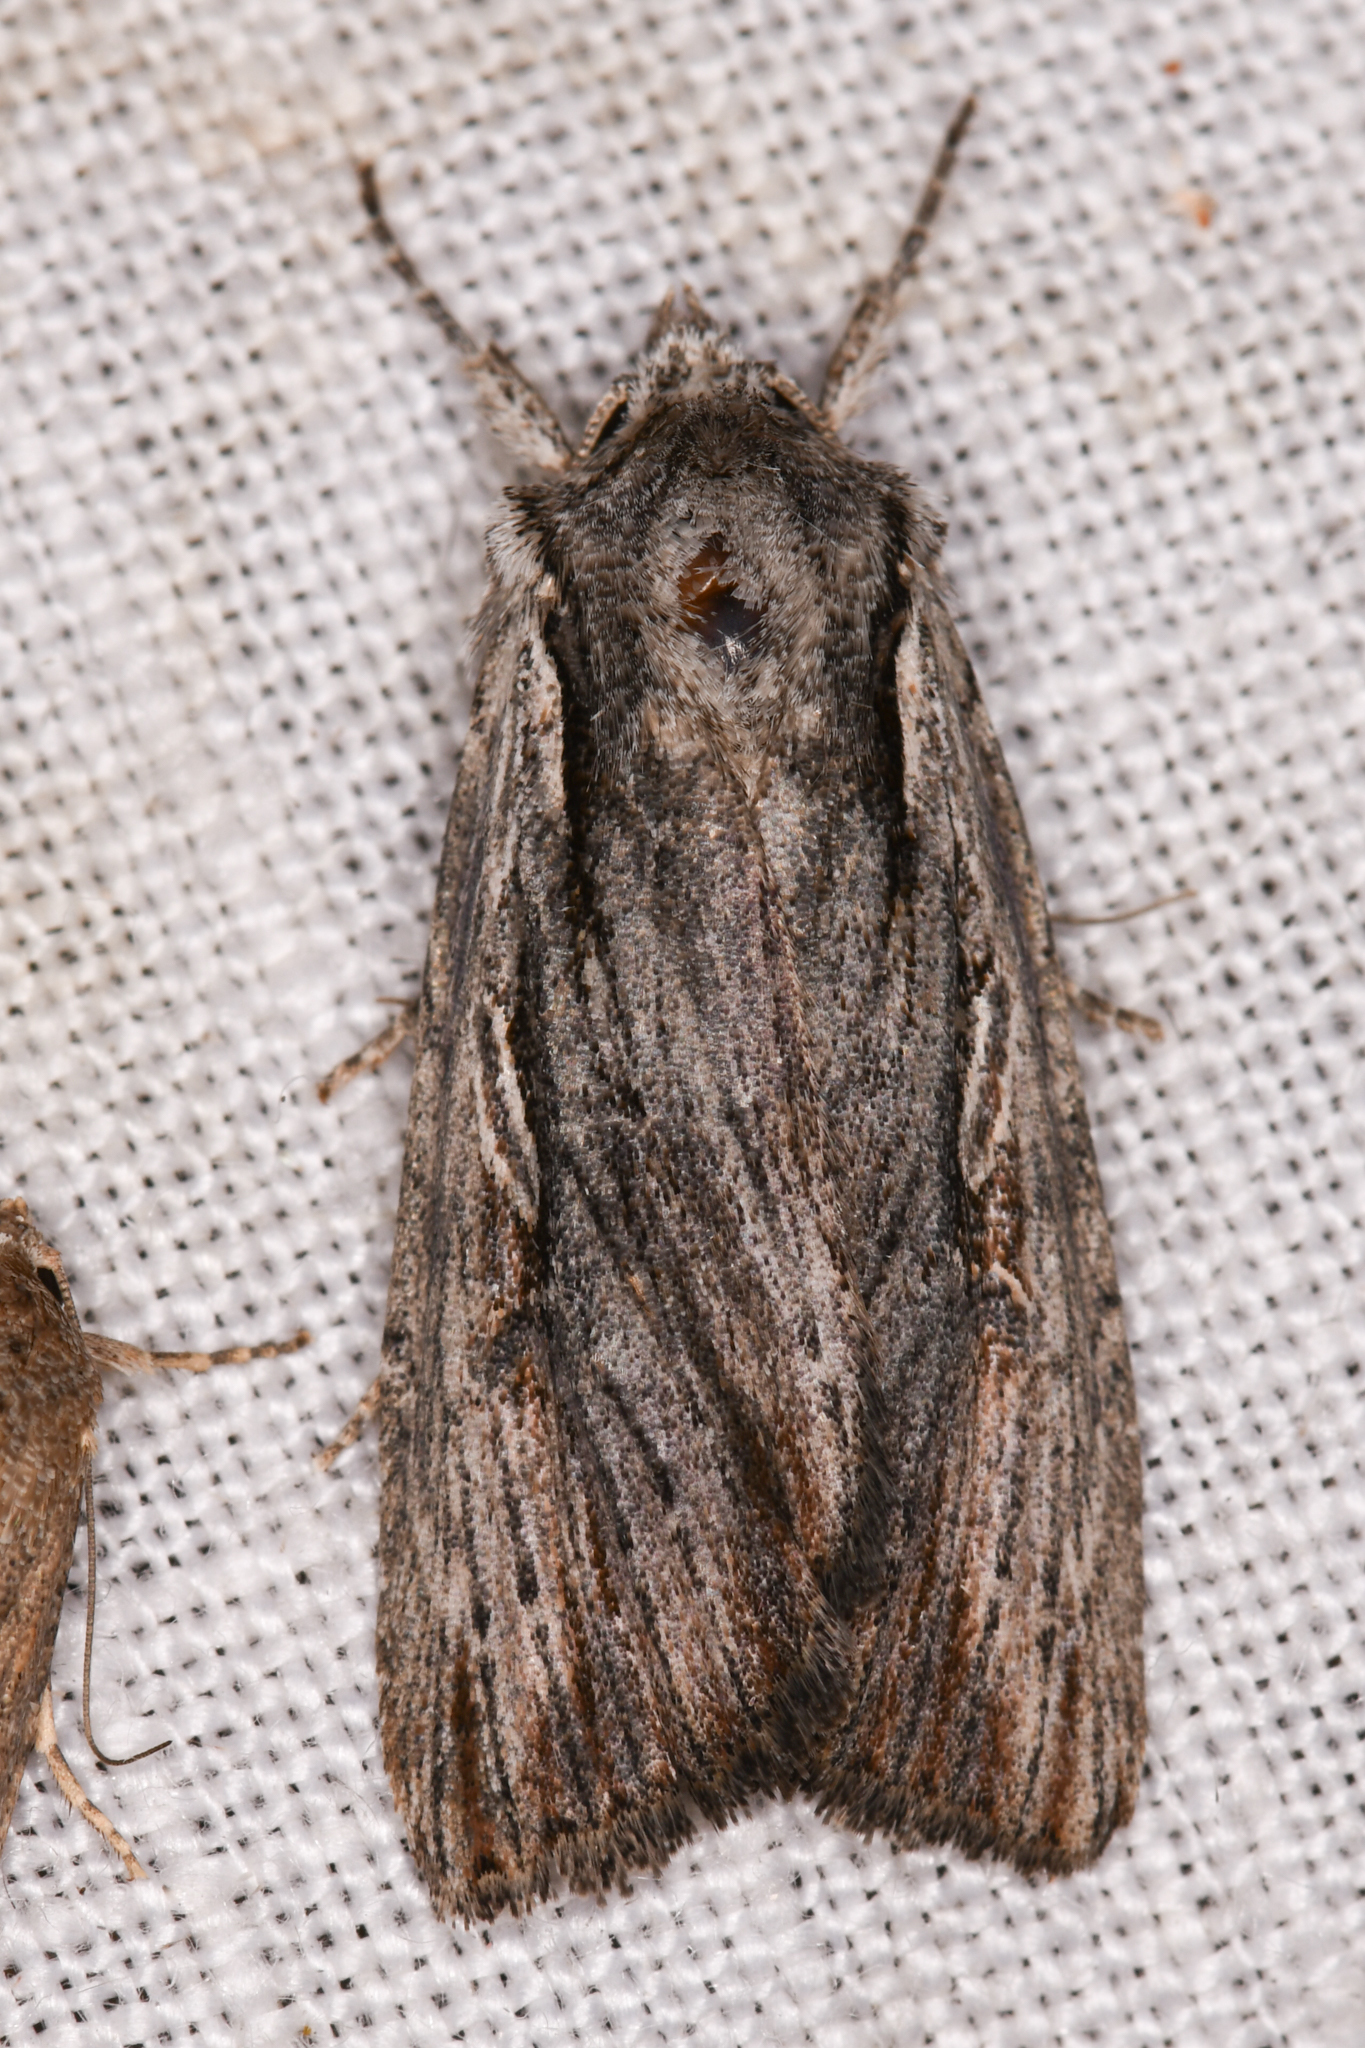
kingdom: Animalia
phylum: Arthropoda
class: Insecta
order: Lepidoptera
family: Noctuidae
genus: Xestia
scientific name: Xestia infimatis
